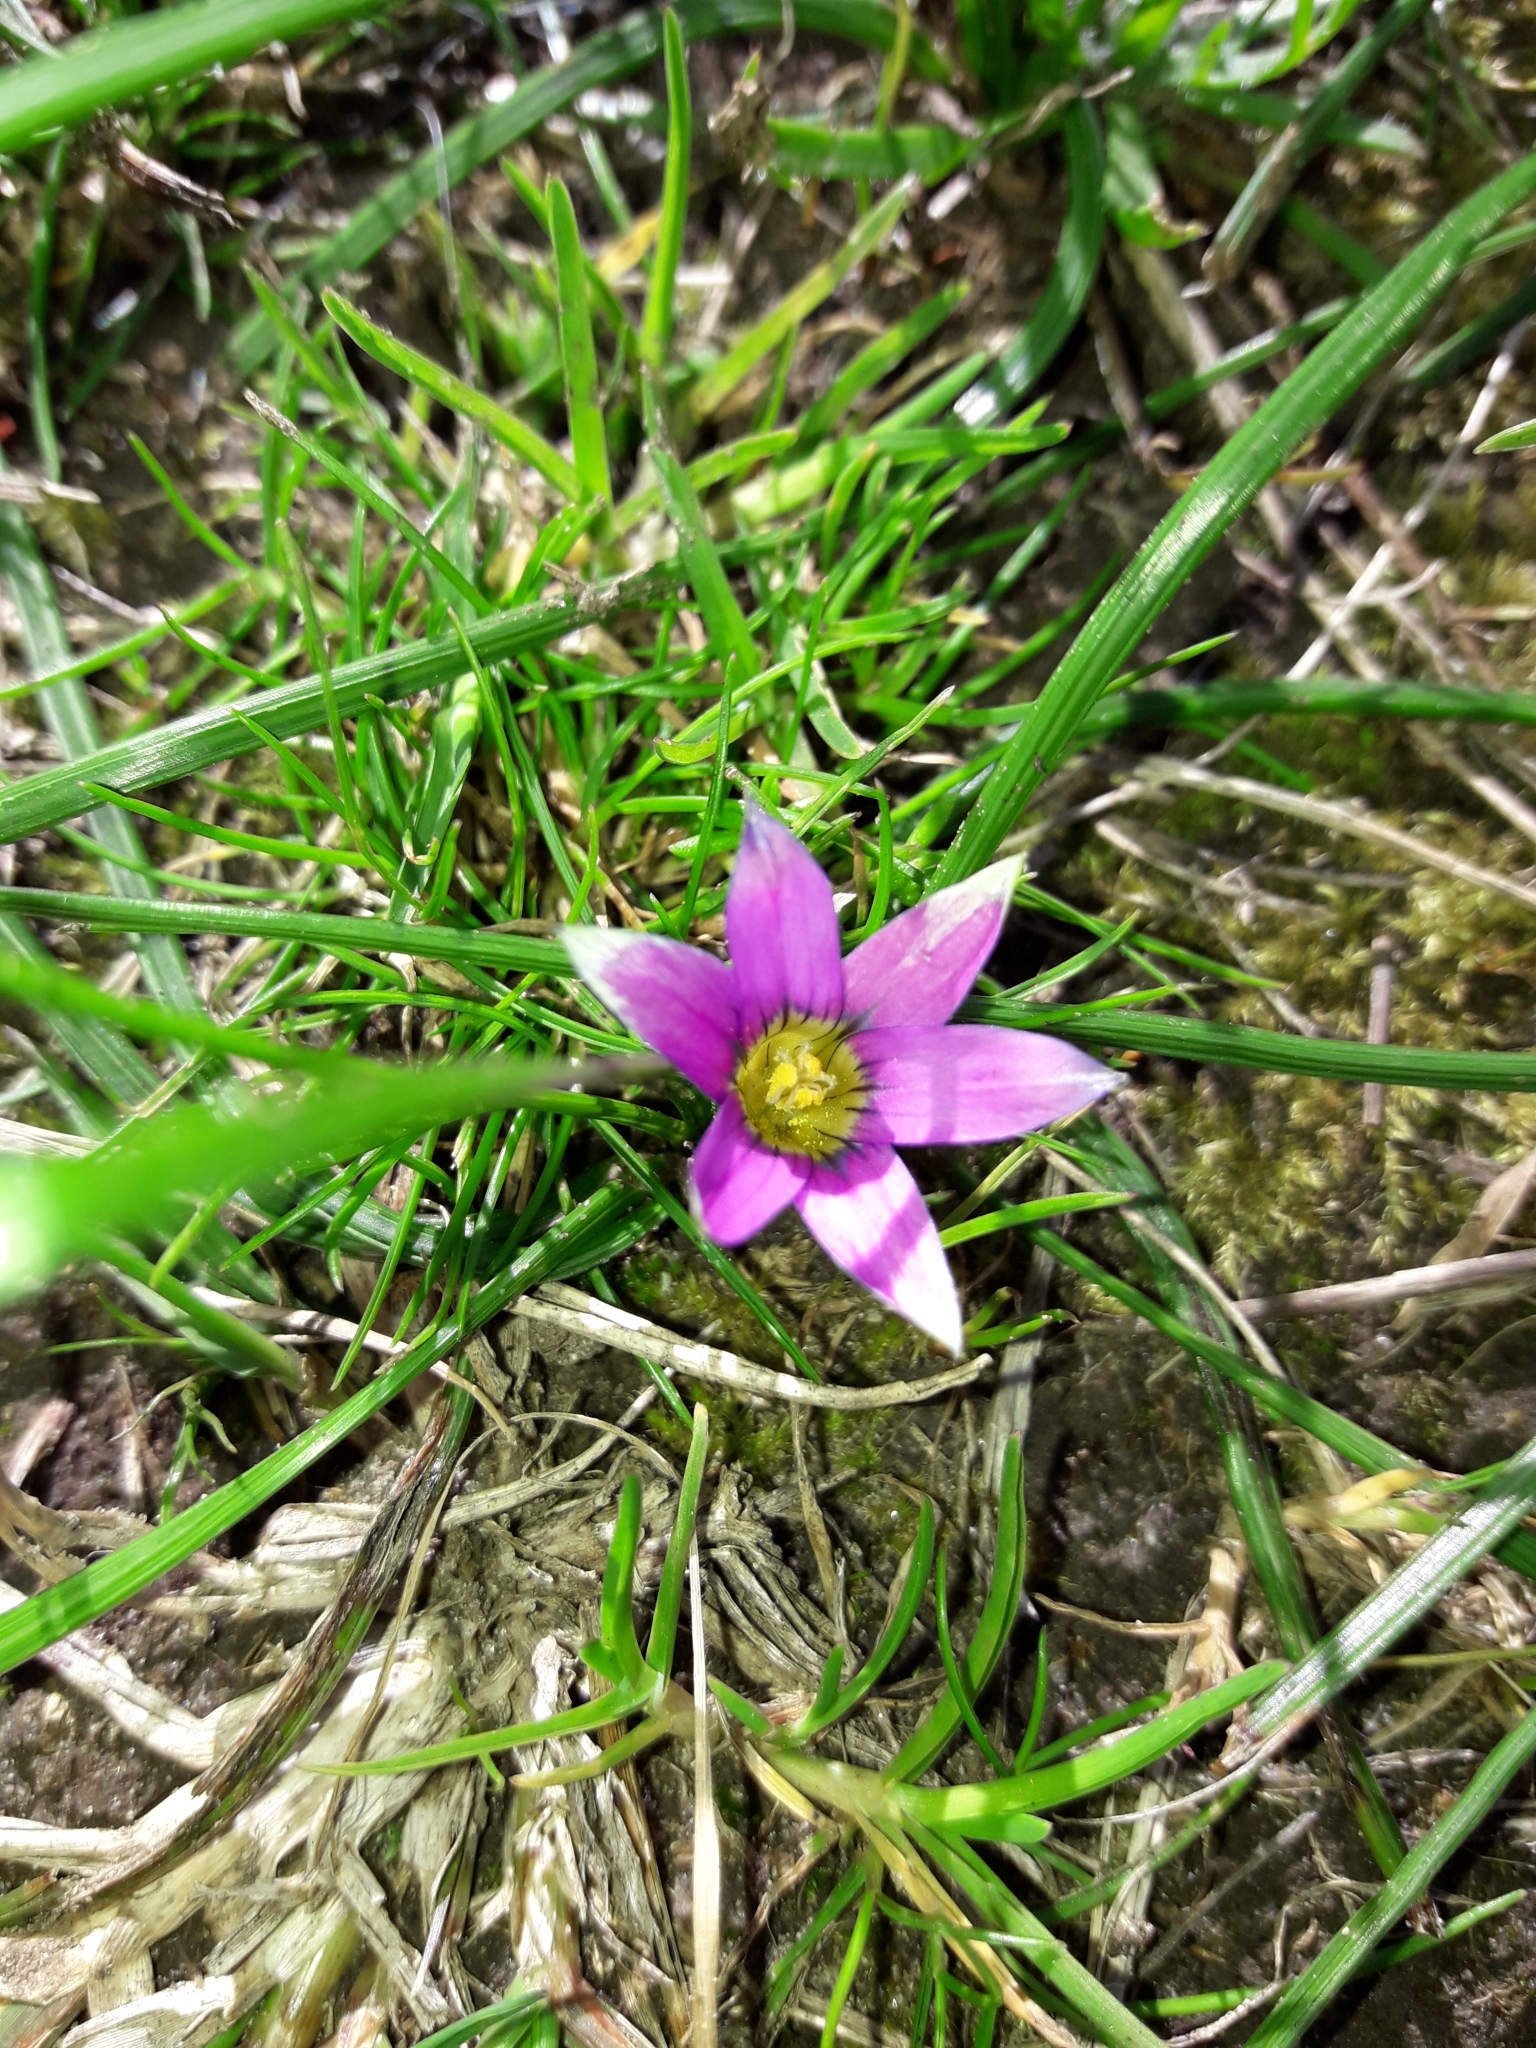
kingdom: Plantae
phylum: Tracheophyta
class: Liliopsida
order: Asparagales
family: Iridaceae
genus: Romulea
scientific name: Romulea rosea
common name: Oniongrass
